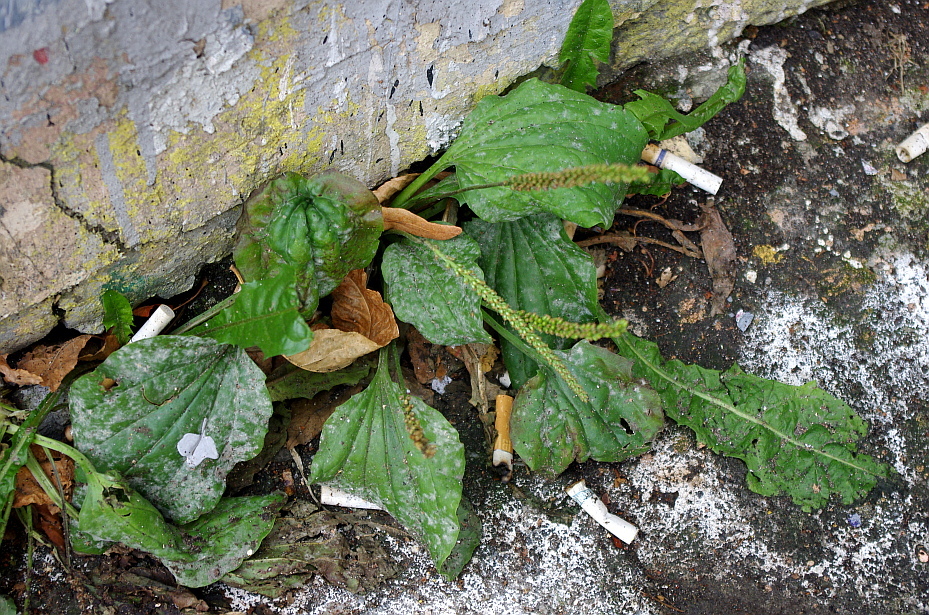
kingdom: Plantae
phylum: Tracheophyta
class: Magnoliopsida
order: Lamiales
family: Plantaginaceae
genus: Plantago
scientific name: Plantago major
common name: Common plantain
